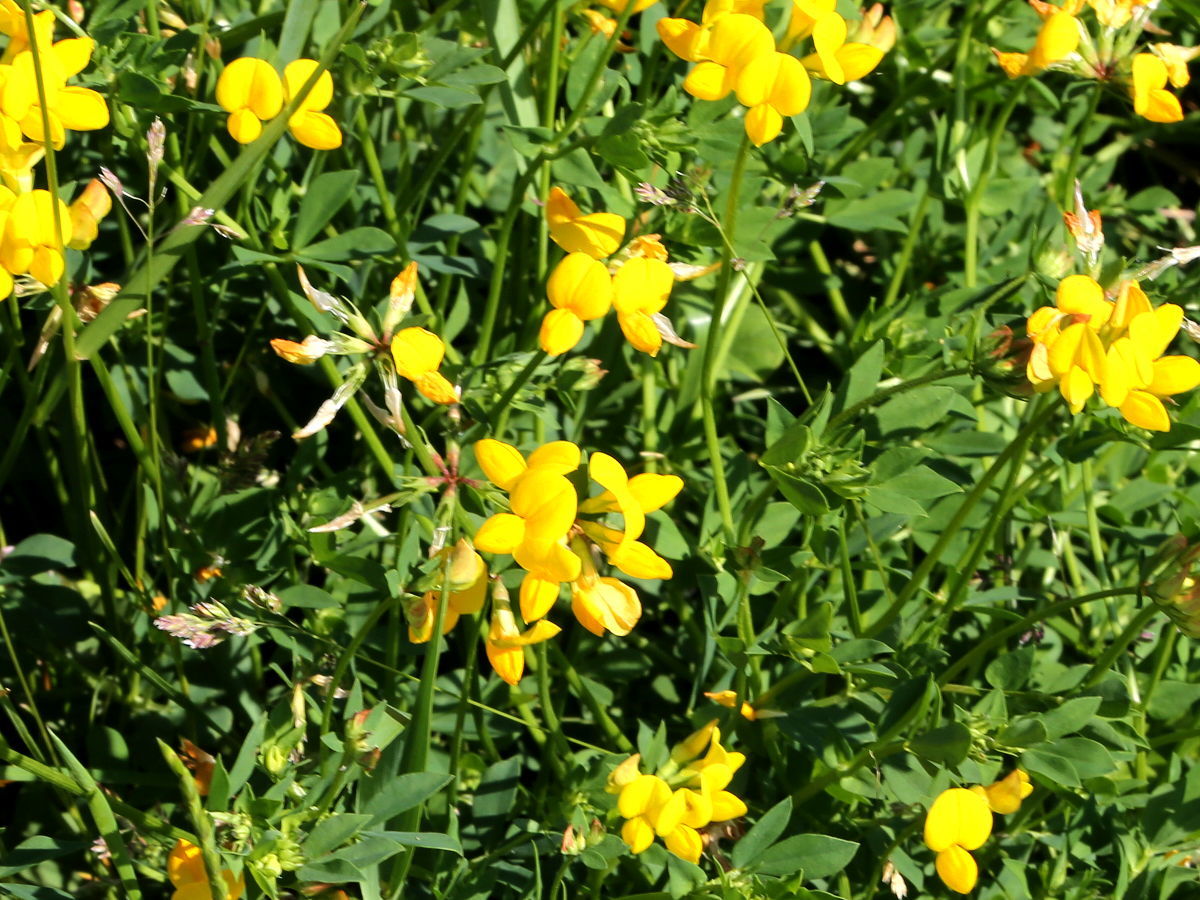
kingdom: Plantae
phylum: Tracheophyta
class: Magnoliopsida
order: Fabales
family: Fabaceae
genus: Lotus
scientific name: Lotus corniculatus
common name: Common bird's-foot-trefoil
